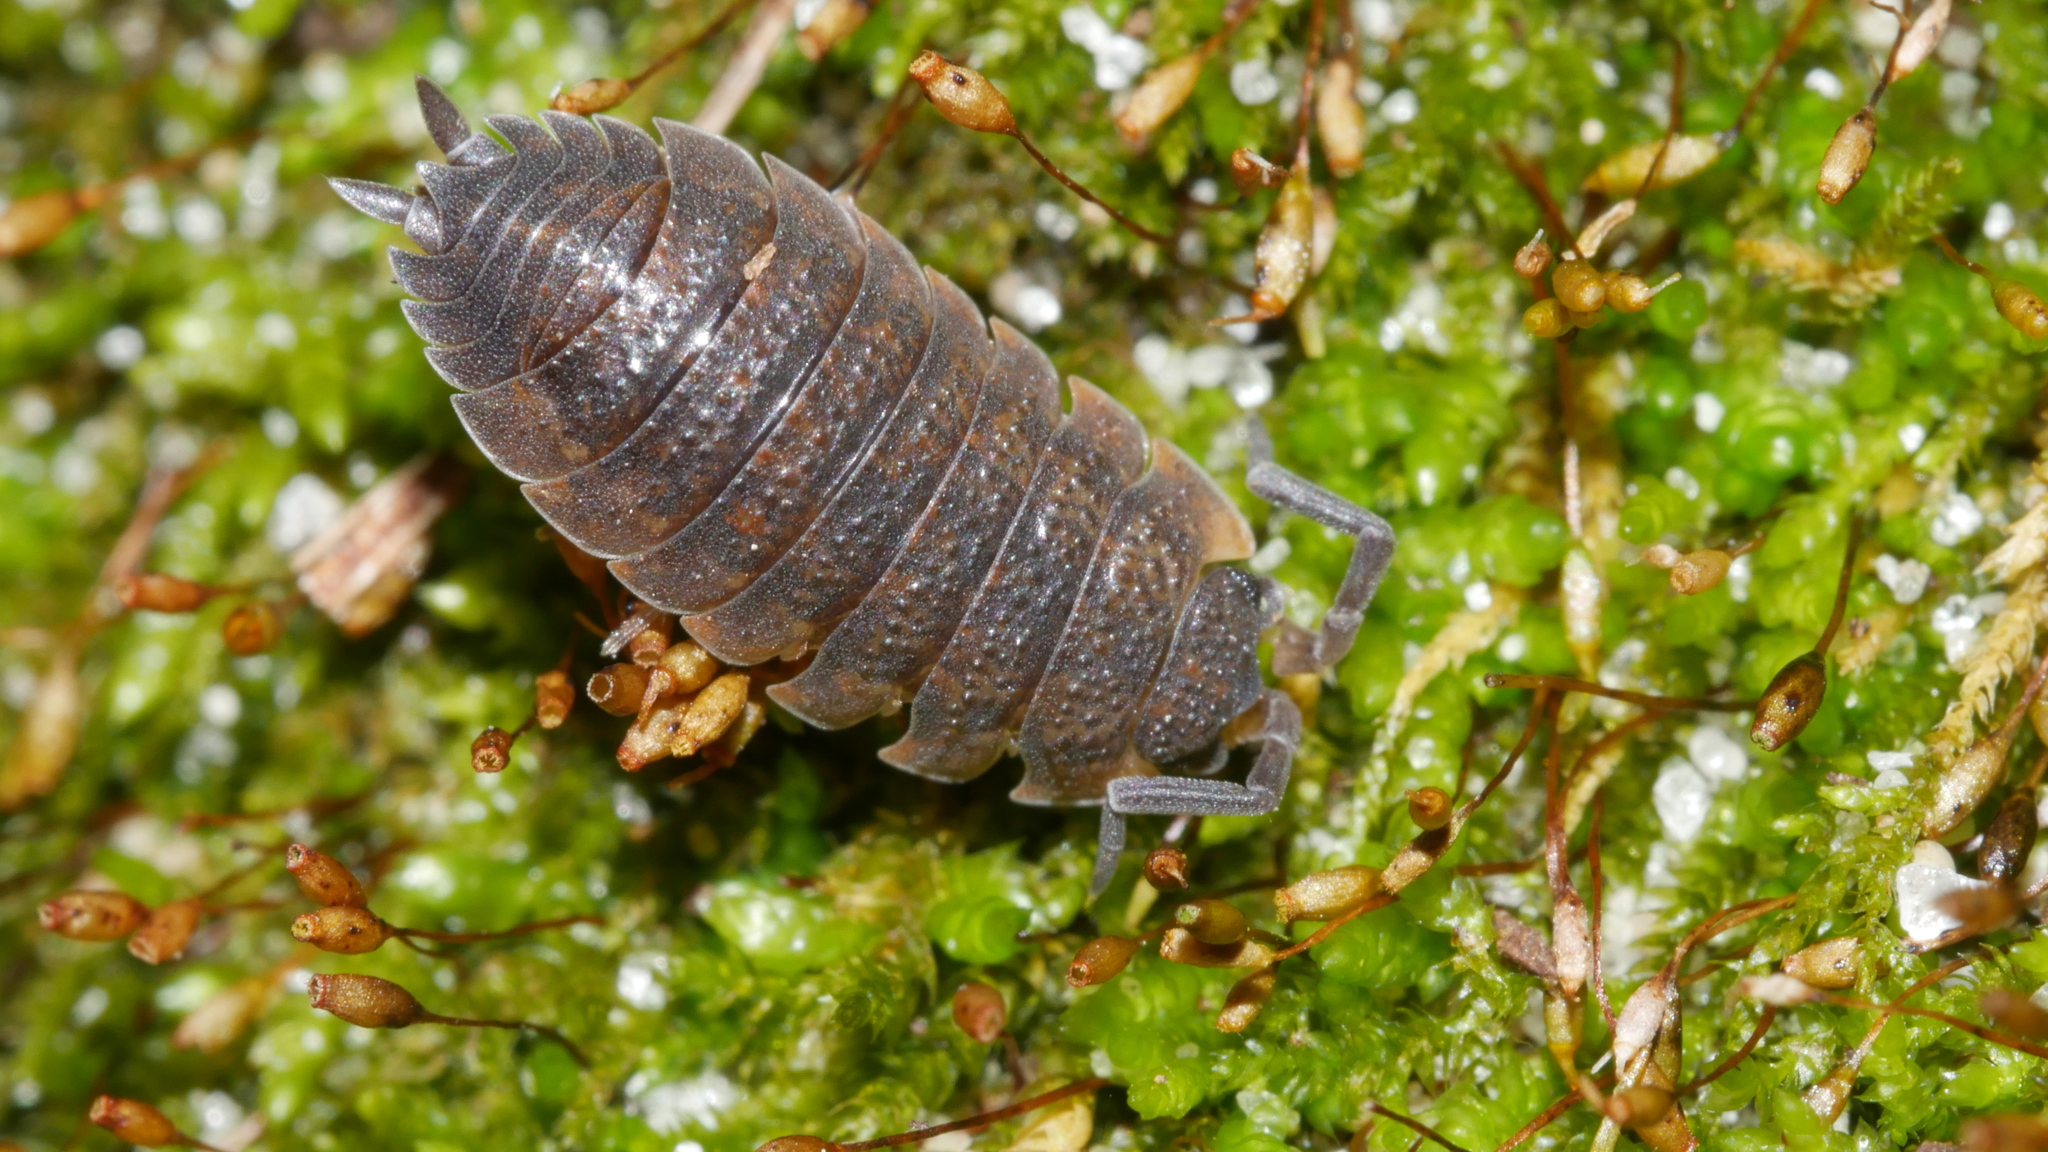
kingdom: Animalia
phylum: Arthropoda
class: Malacostraca
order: Isopoda
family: Porcellionidae
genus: Porcellio
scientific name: Porcellio scaber
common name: Common rough woodlouse
